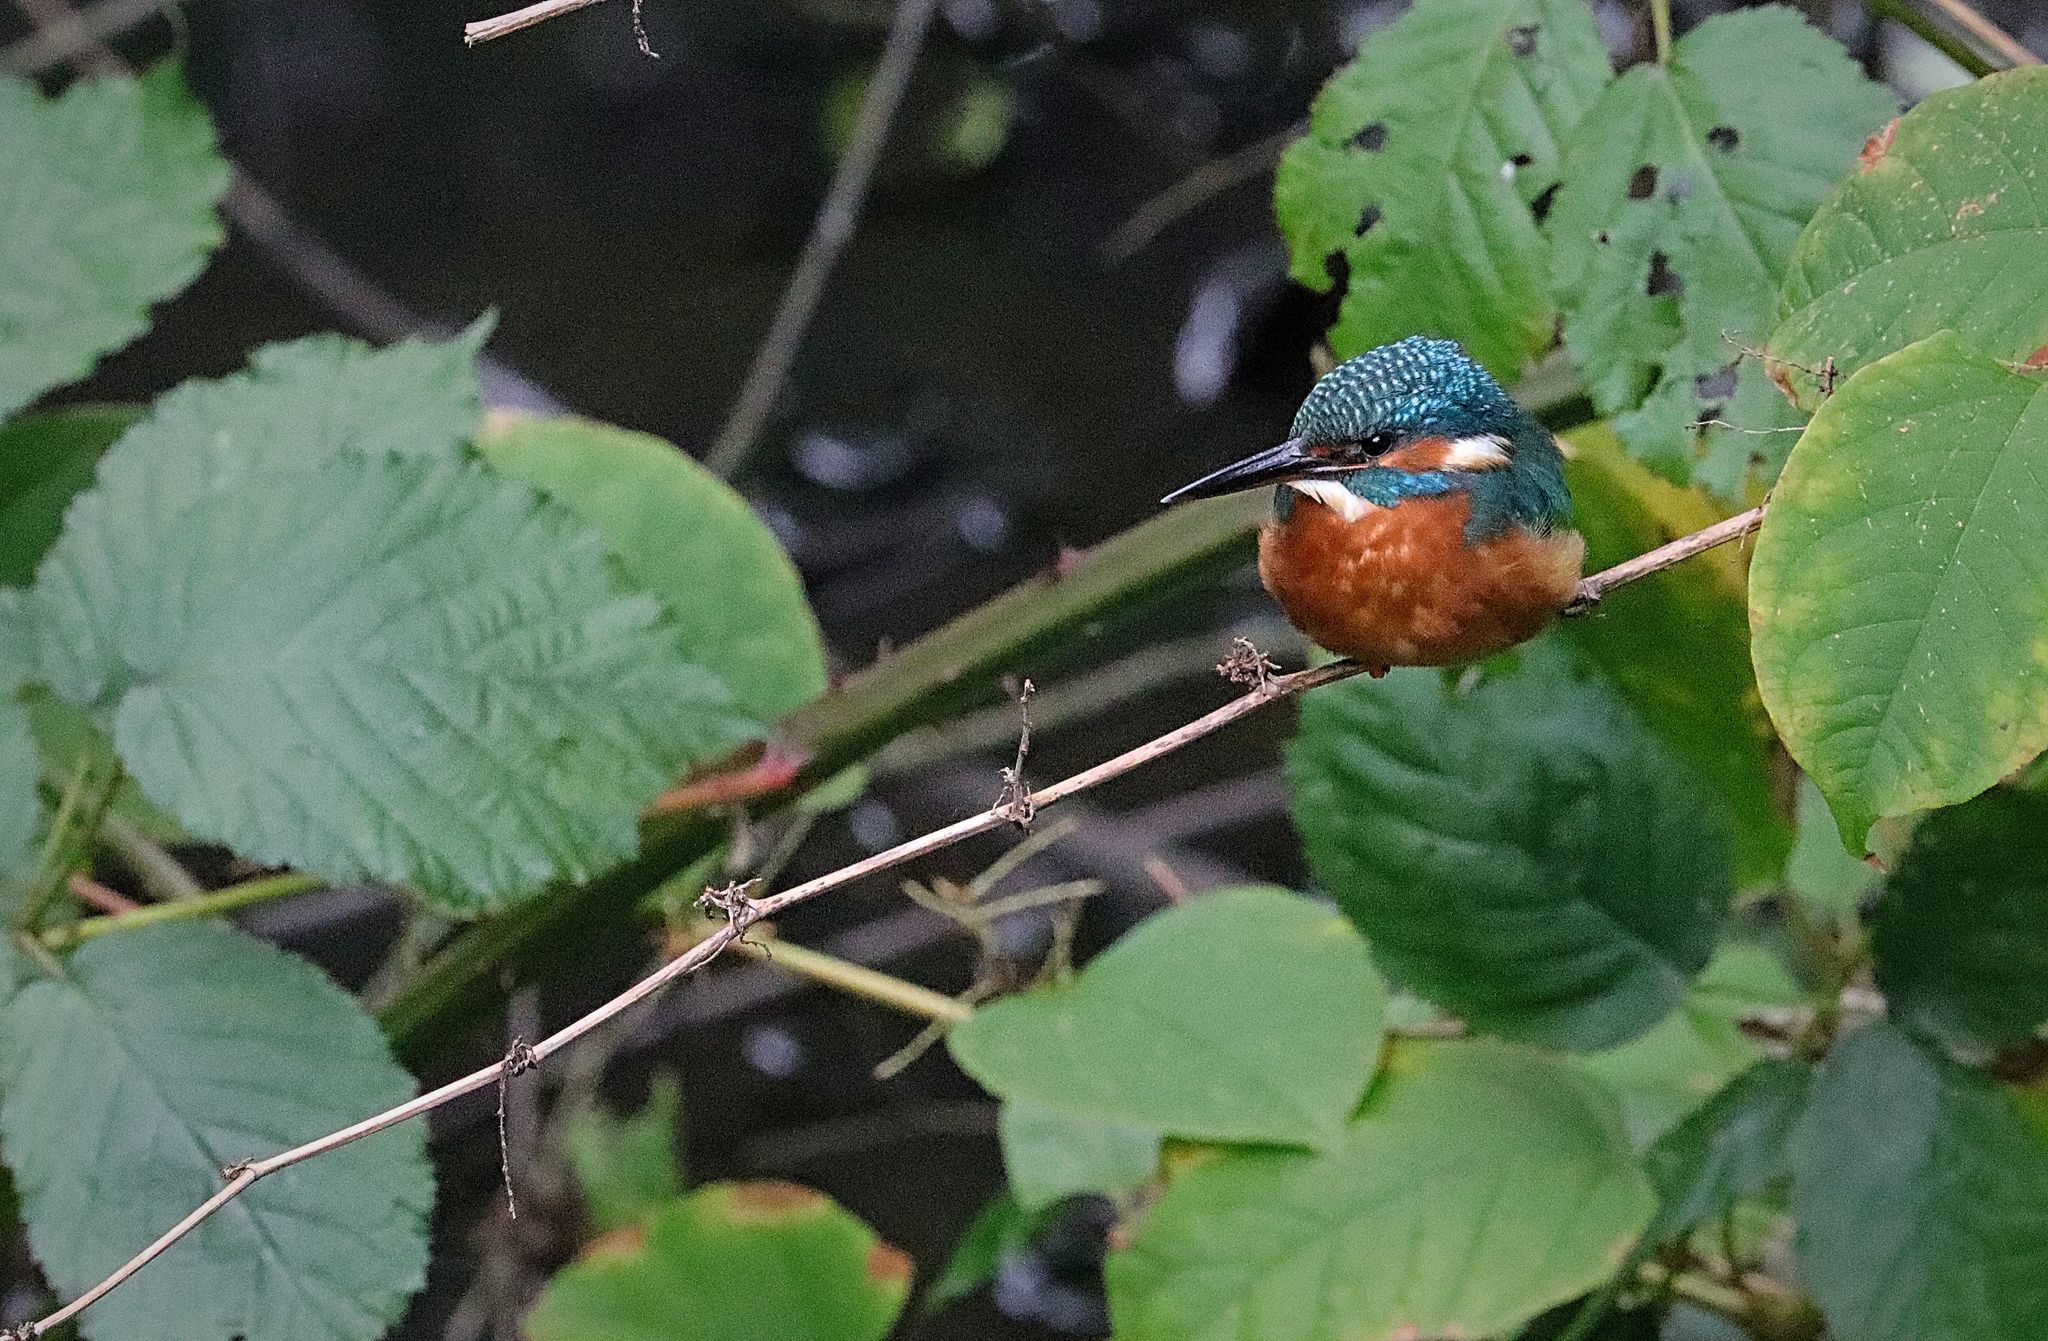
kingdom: Animalia
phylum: Chordata
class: Aves
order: Coraciiformes
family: Alcedinidae
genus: Alcedo
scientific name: Alcedo atthis
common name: Common kingfisher
